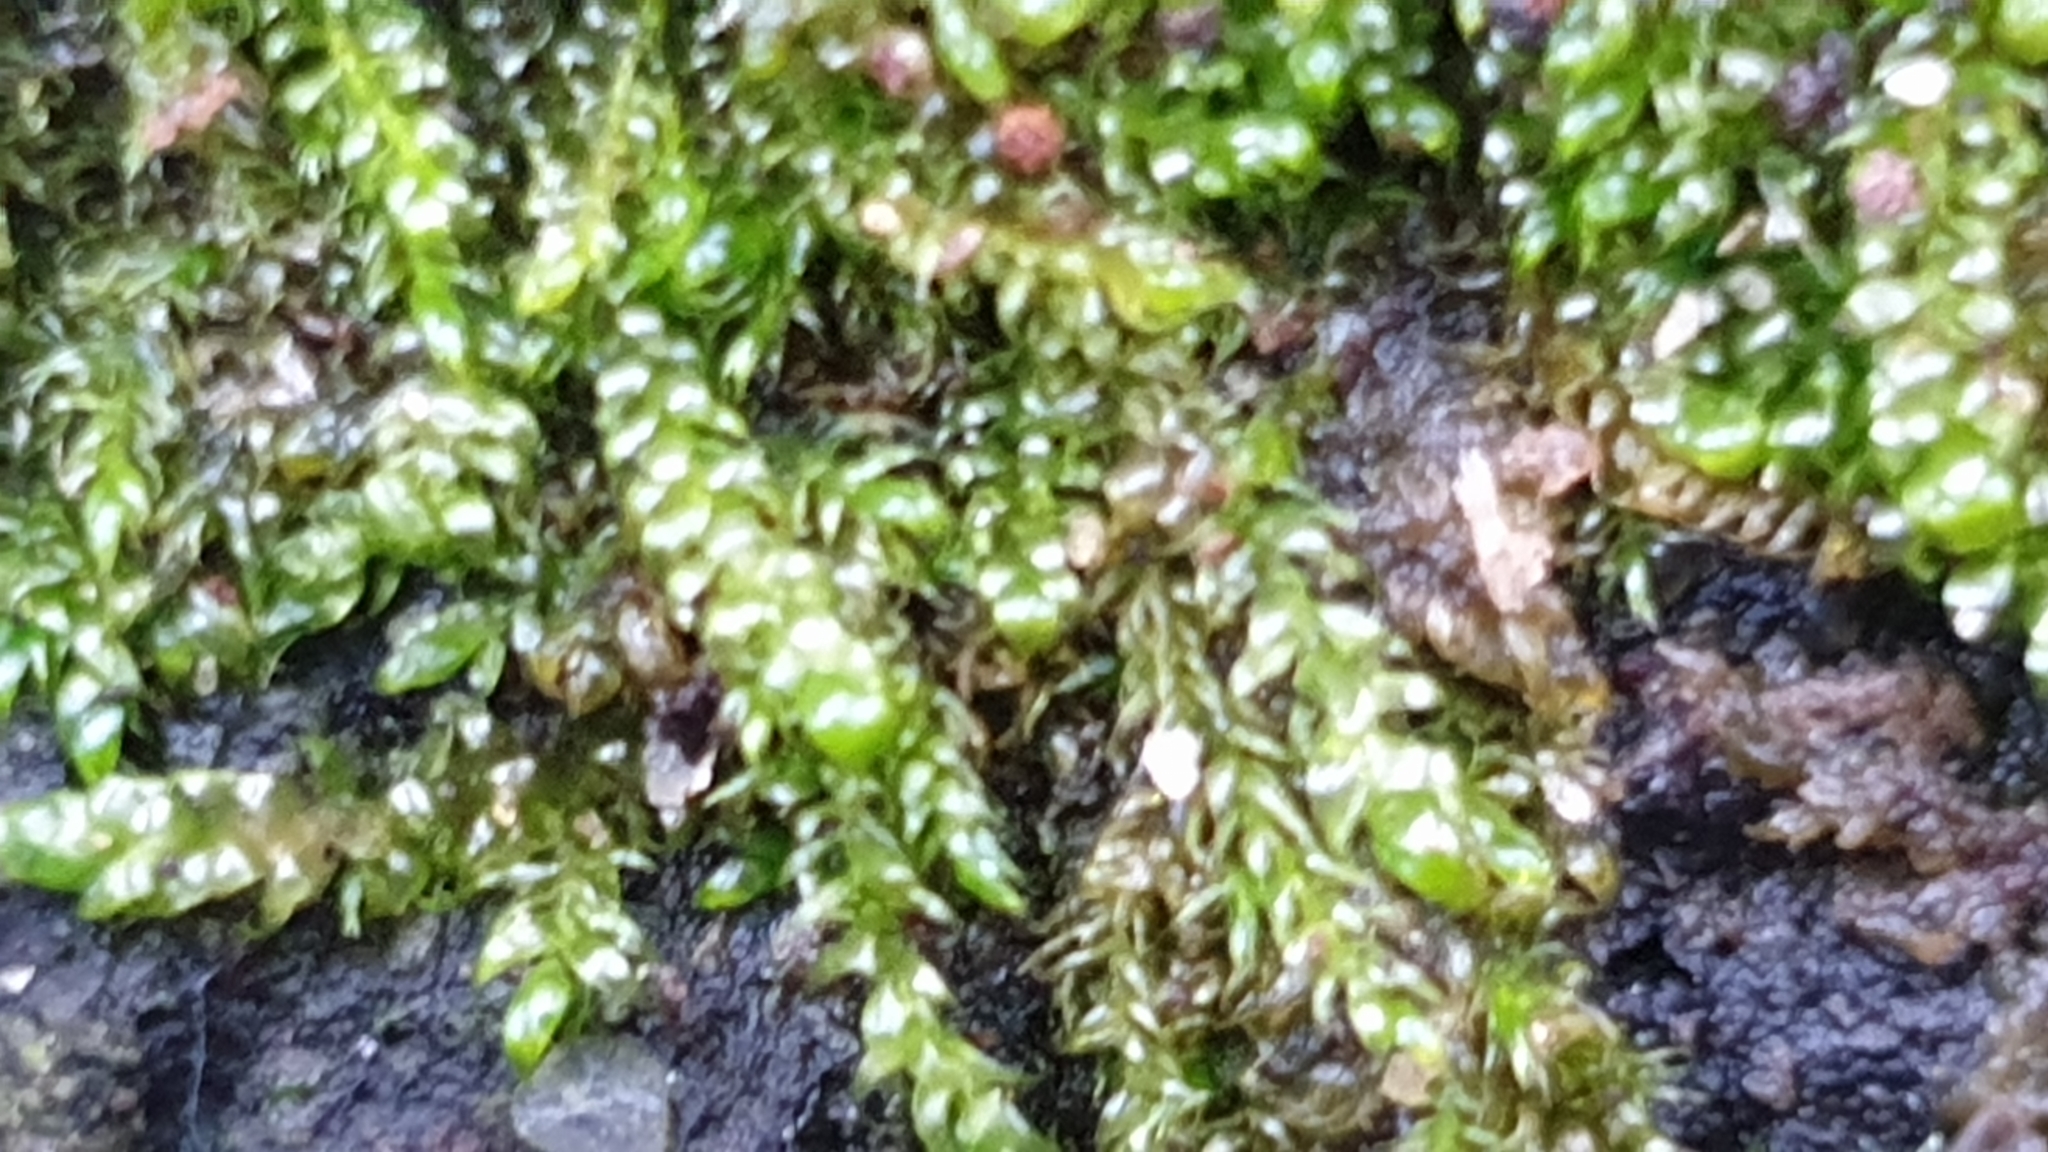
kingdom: Plantae
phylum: Bryophyta
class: Bryopsida
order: Hypnales
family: Hypnaceae
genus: Hypnum
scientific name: Hypnum cupressiforme
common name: Cypress-leaved plait-moss
